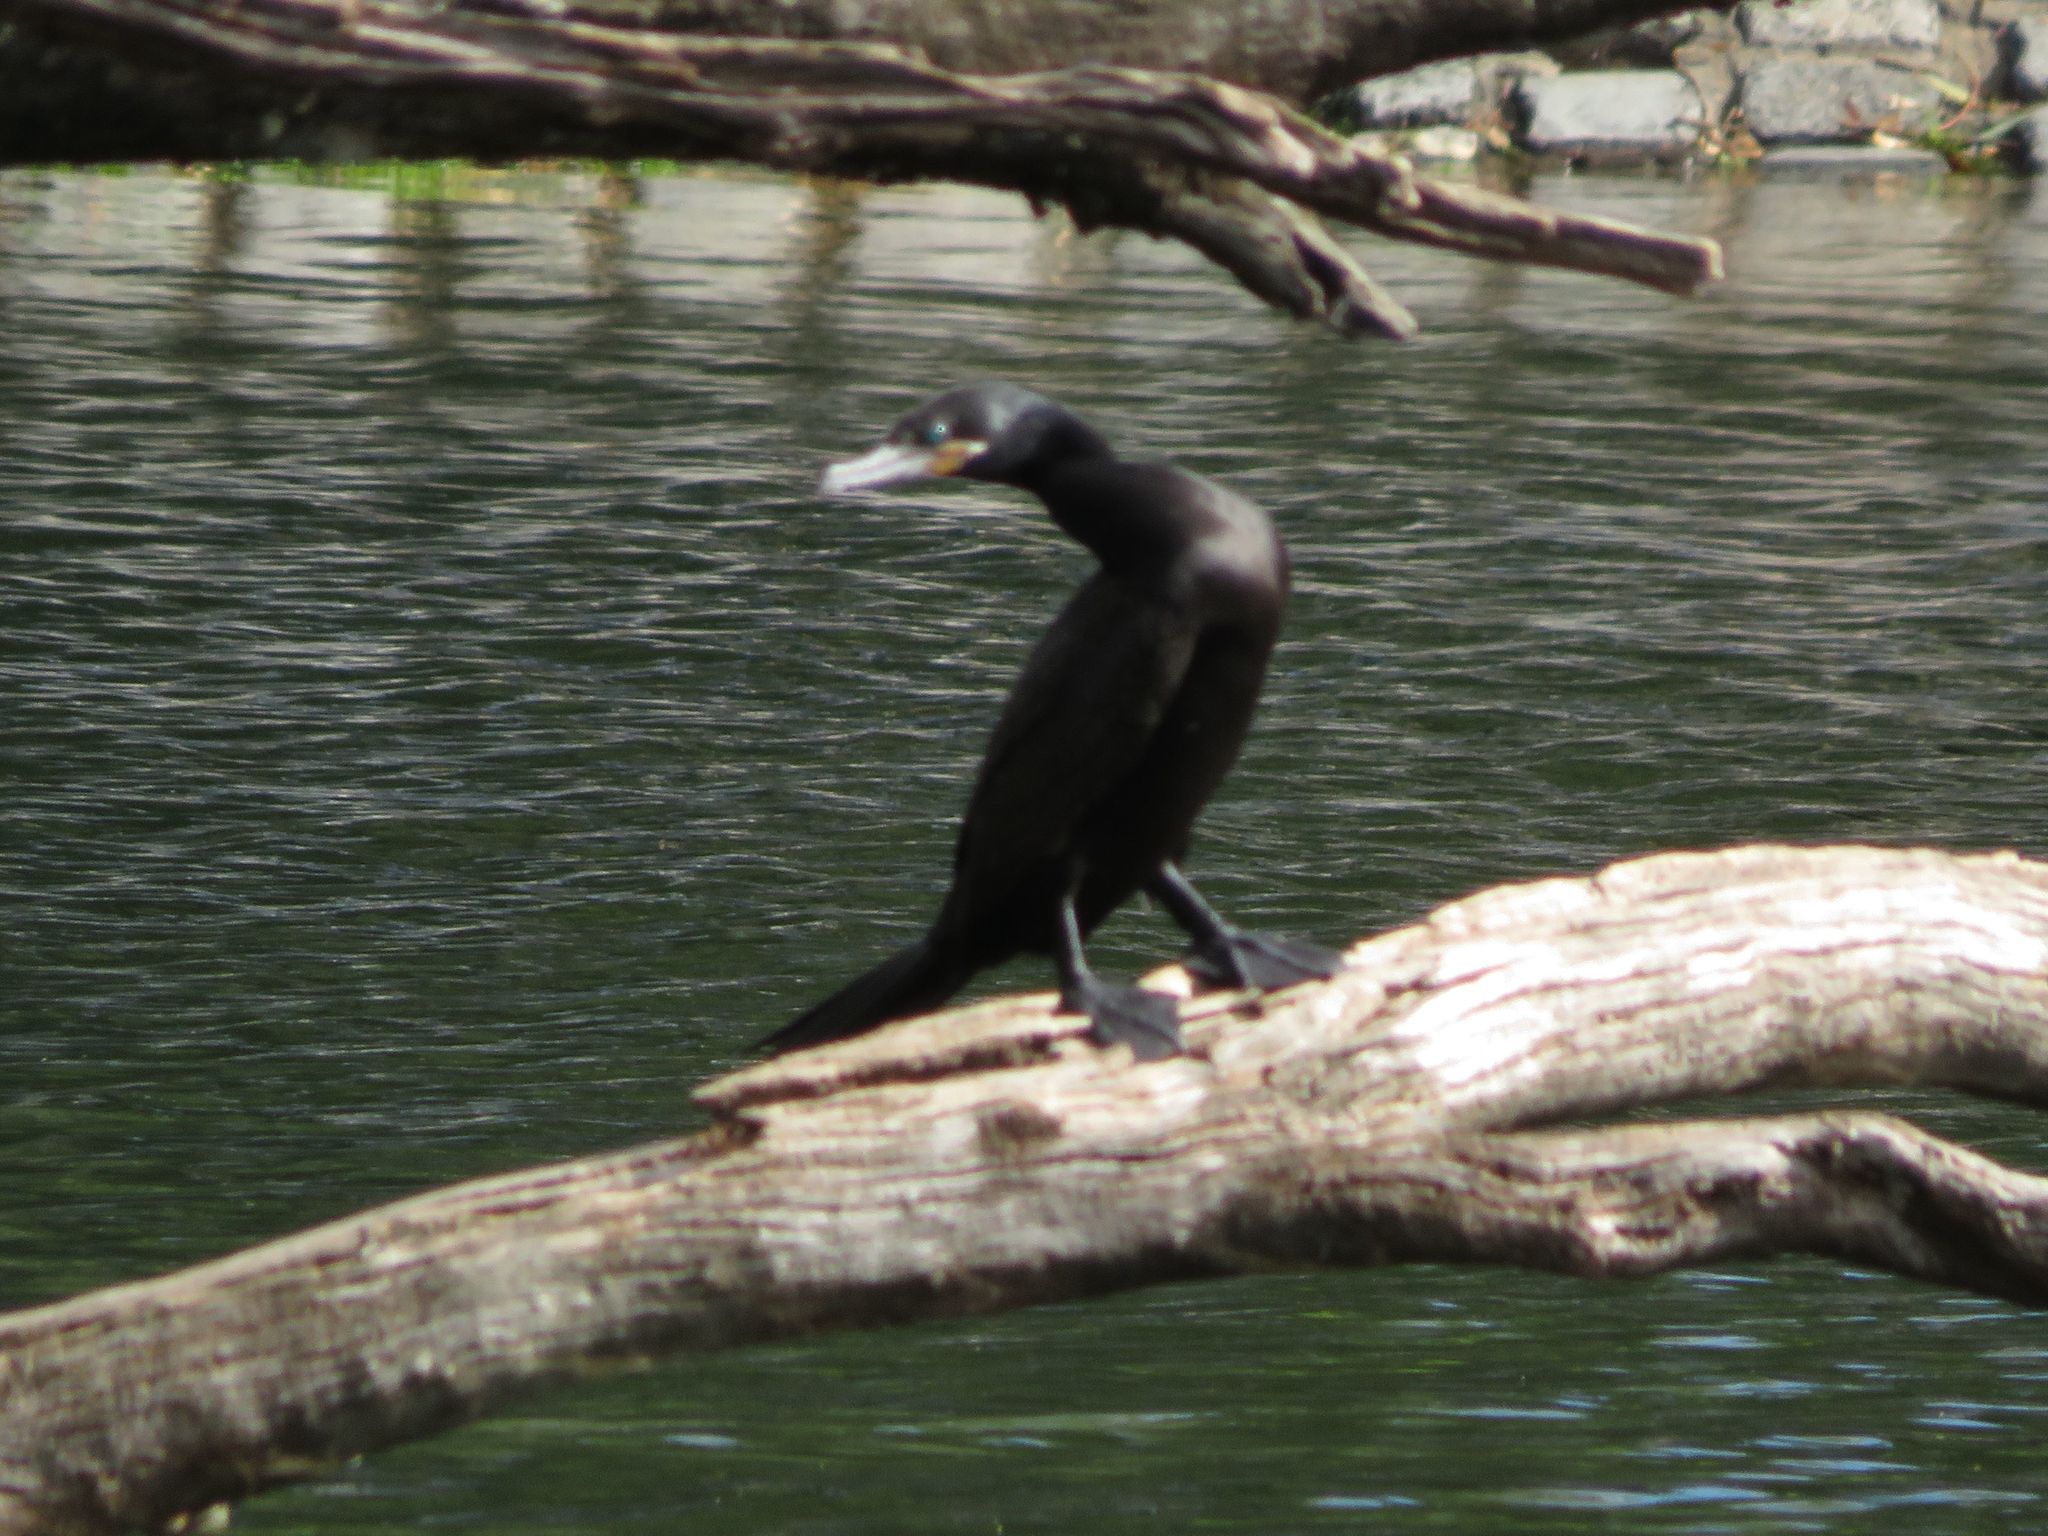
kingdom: Animalia
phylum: Chordata
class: Aves
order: Suliformes
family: Phalacrocoracidae
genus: Phalacrocorax
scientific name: Phalacrocorax brasilianus
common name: Neotropic cormorant
